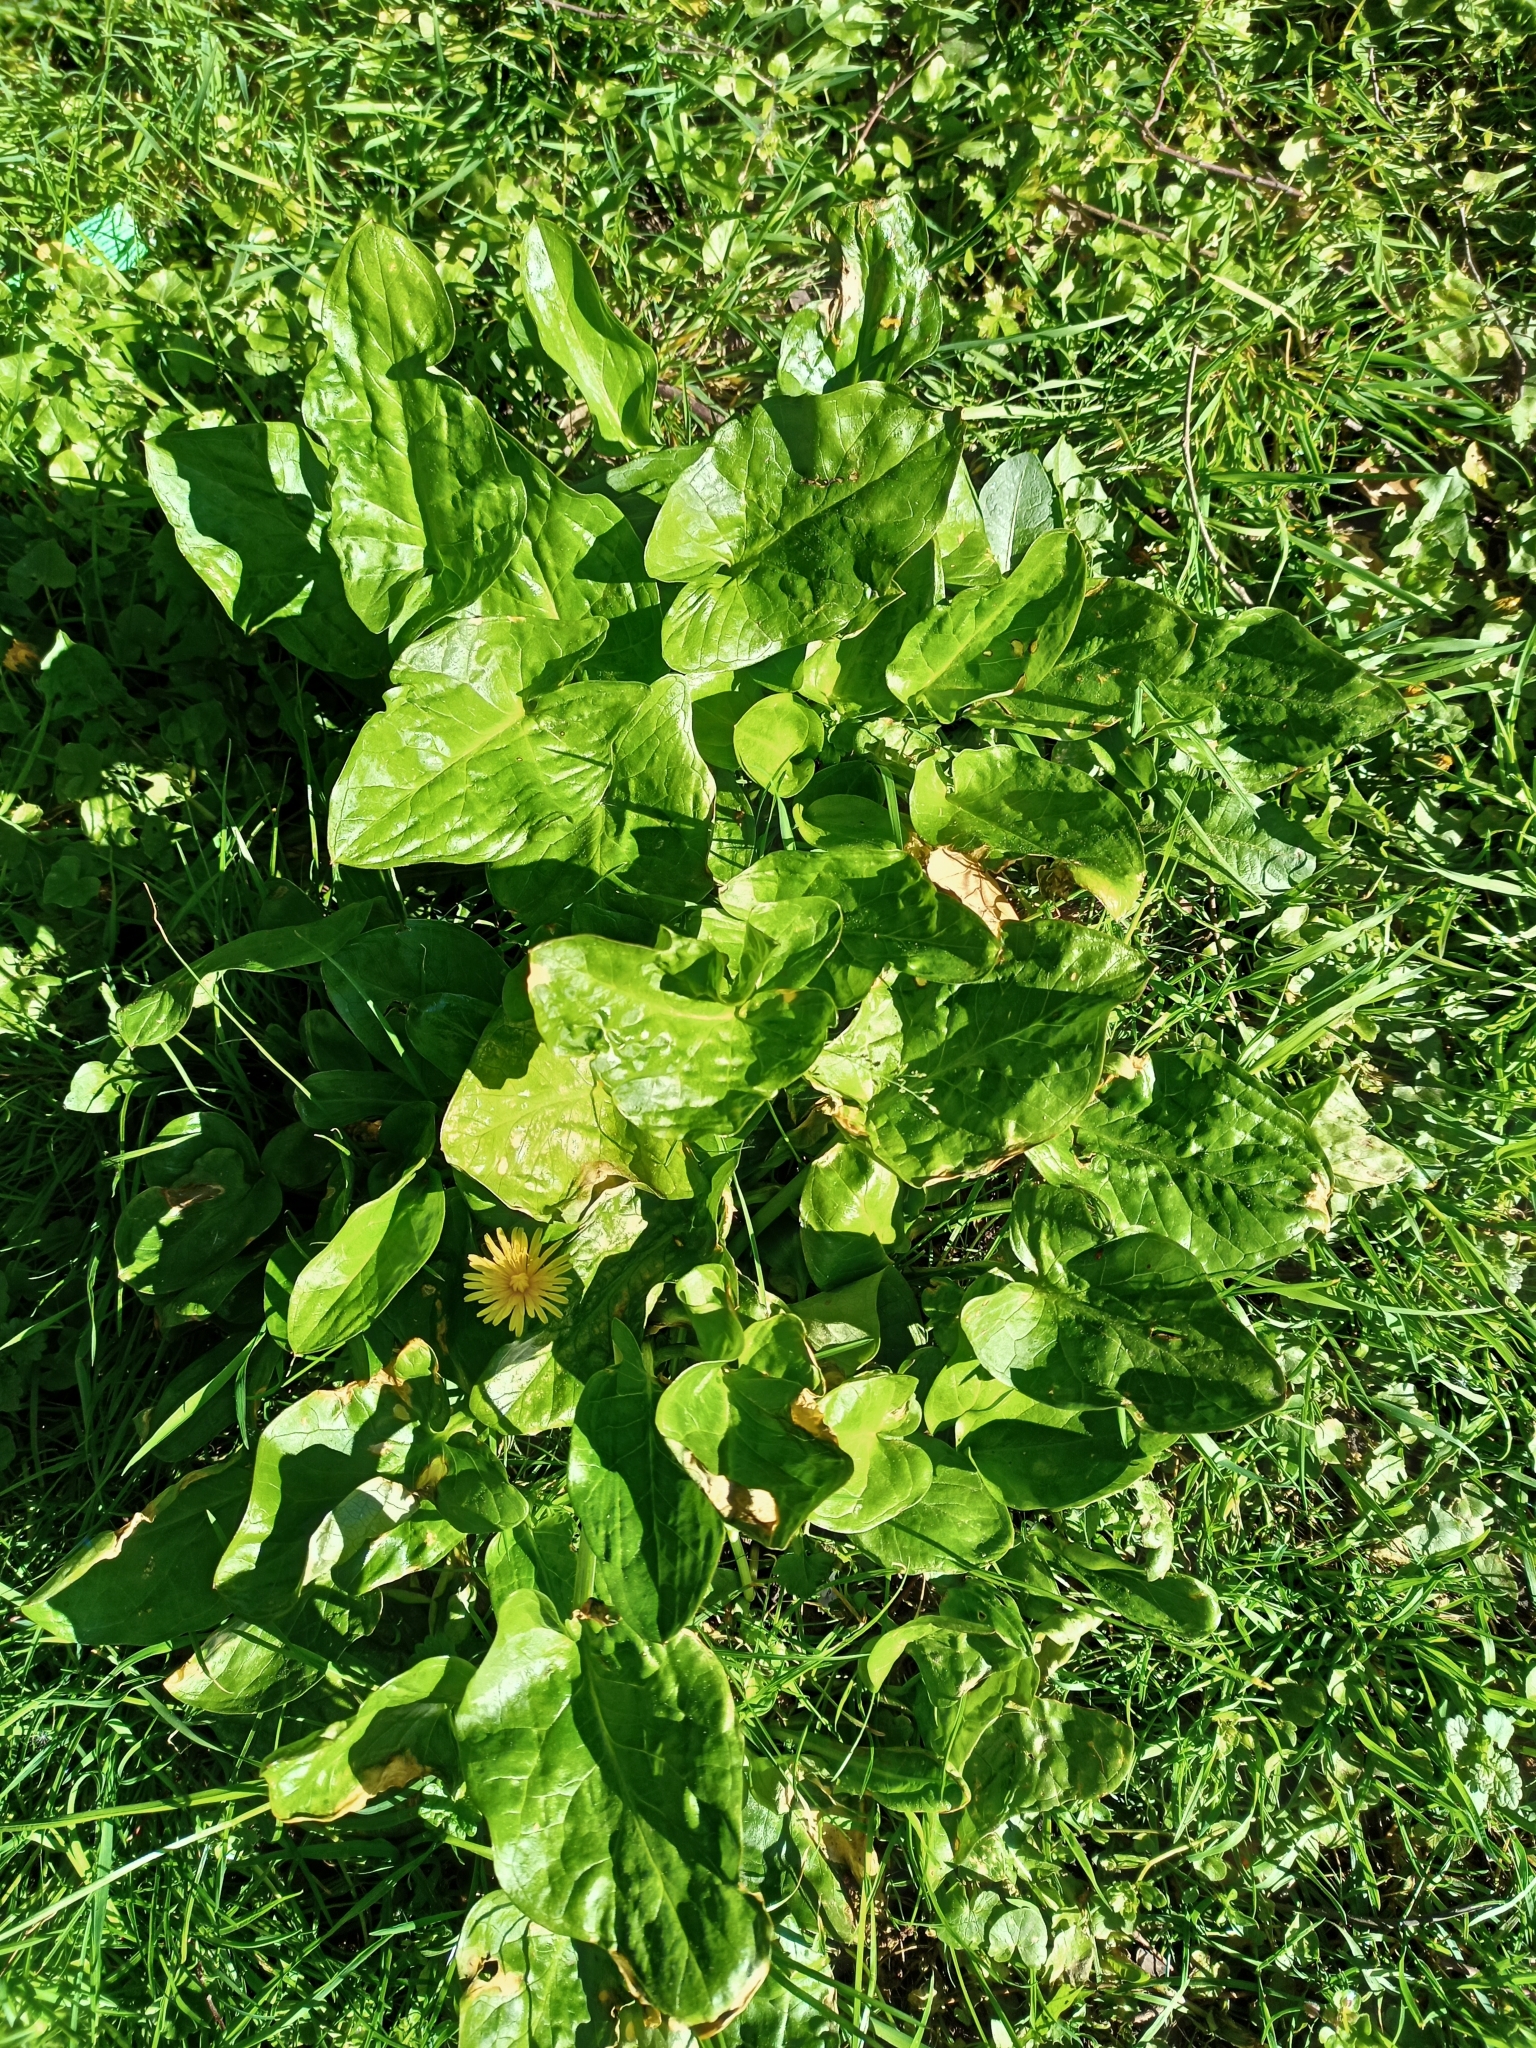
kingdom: Plantae
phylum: Tracheophyta
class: Liliopsida
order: Alismatales
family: Araceae
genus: Arum
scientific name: Arum maculatum
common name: Lords-and-ladies
